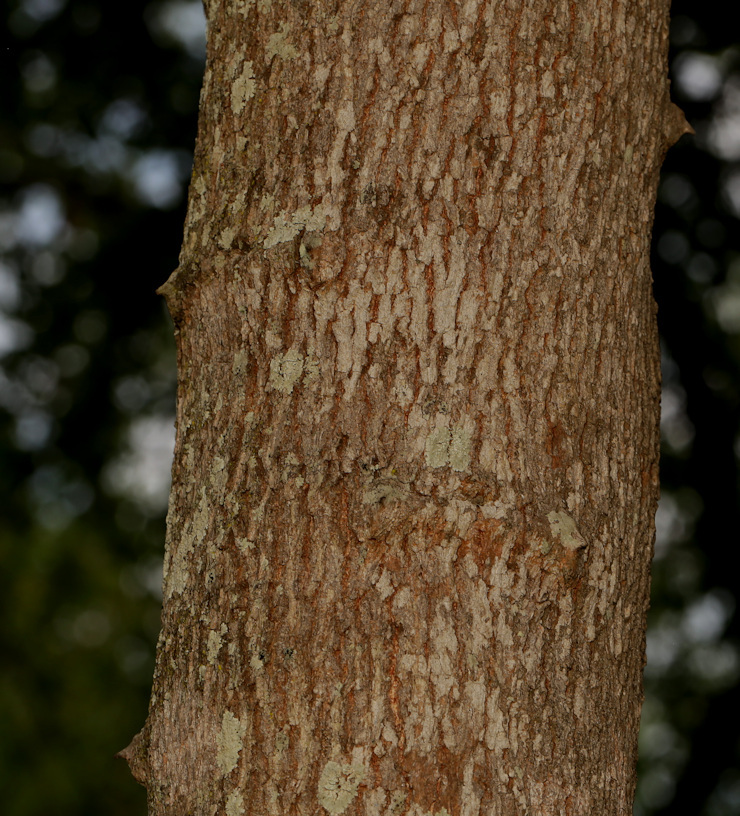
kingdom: Plantae
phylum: Tracheophyta
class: Magnoliopsida
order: Brassicales
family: Capparaceae
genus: Capparis
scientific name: Capparis tomentosa
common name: African caper
